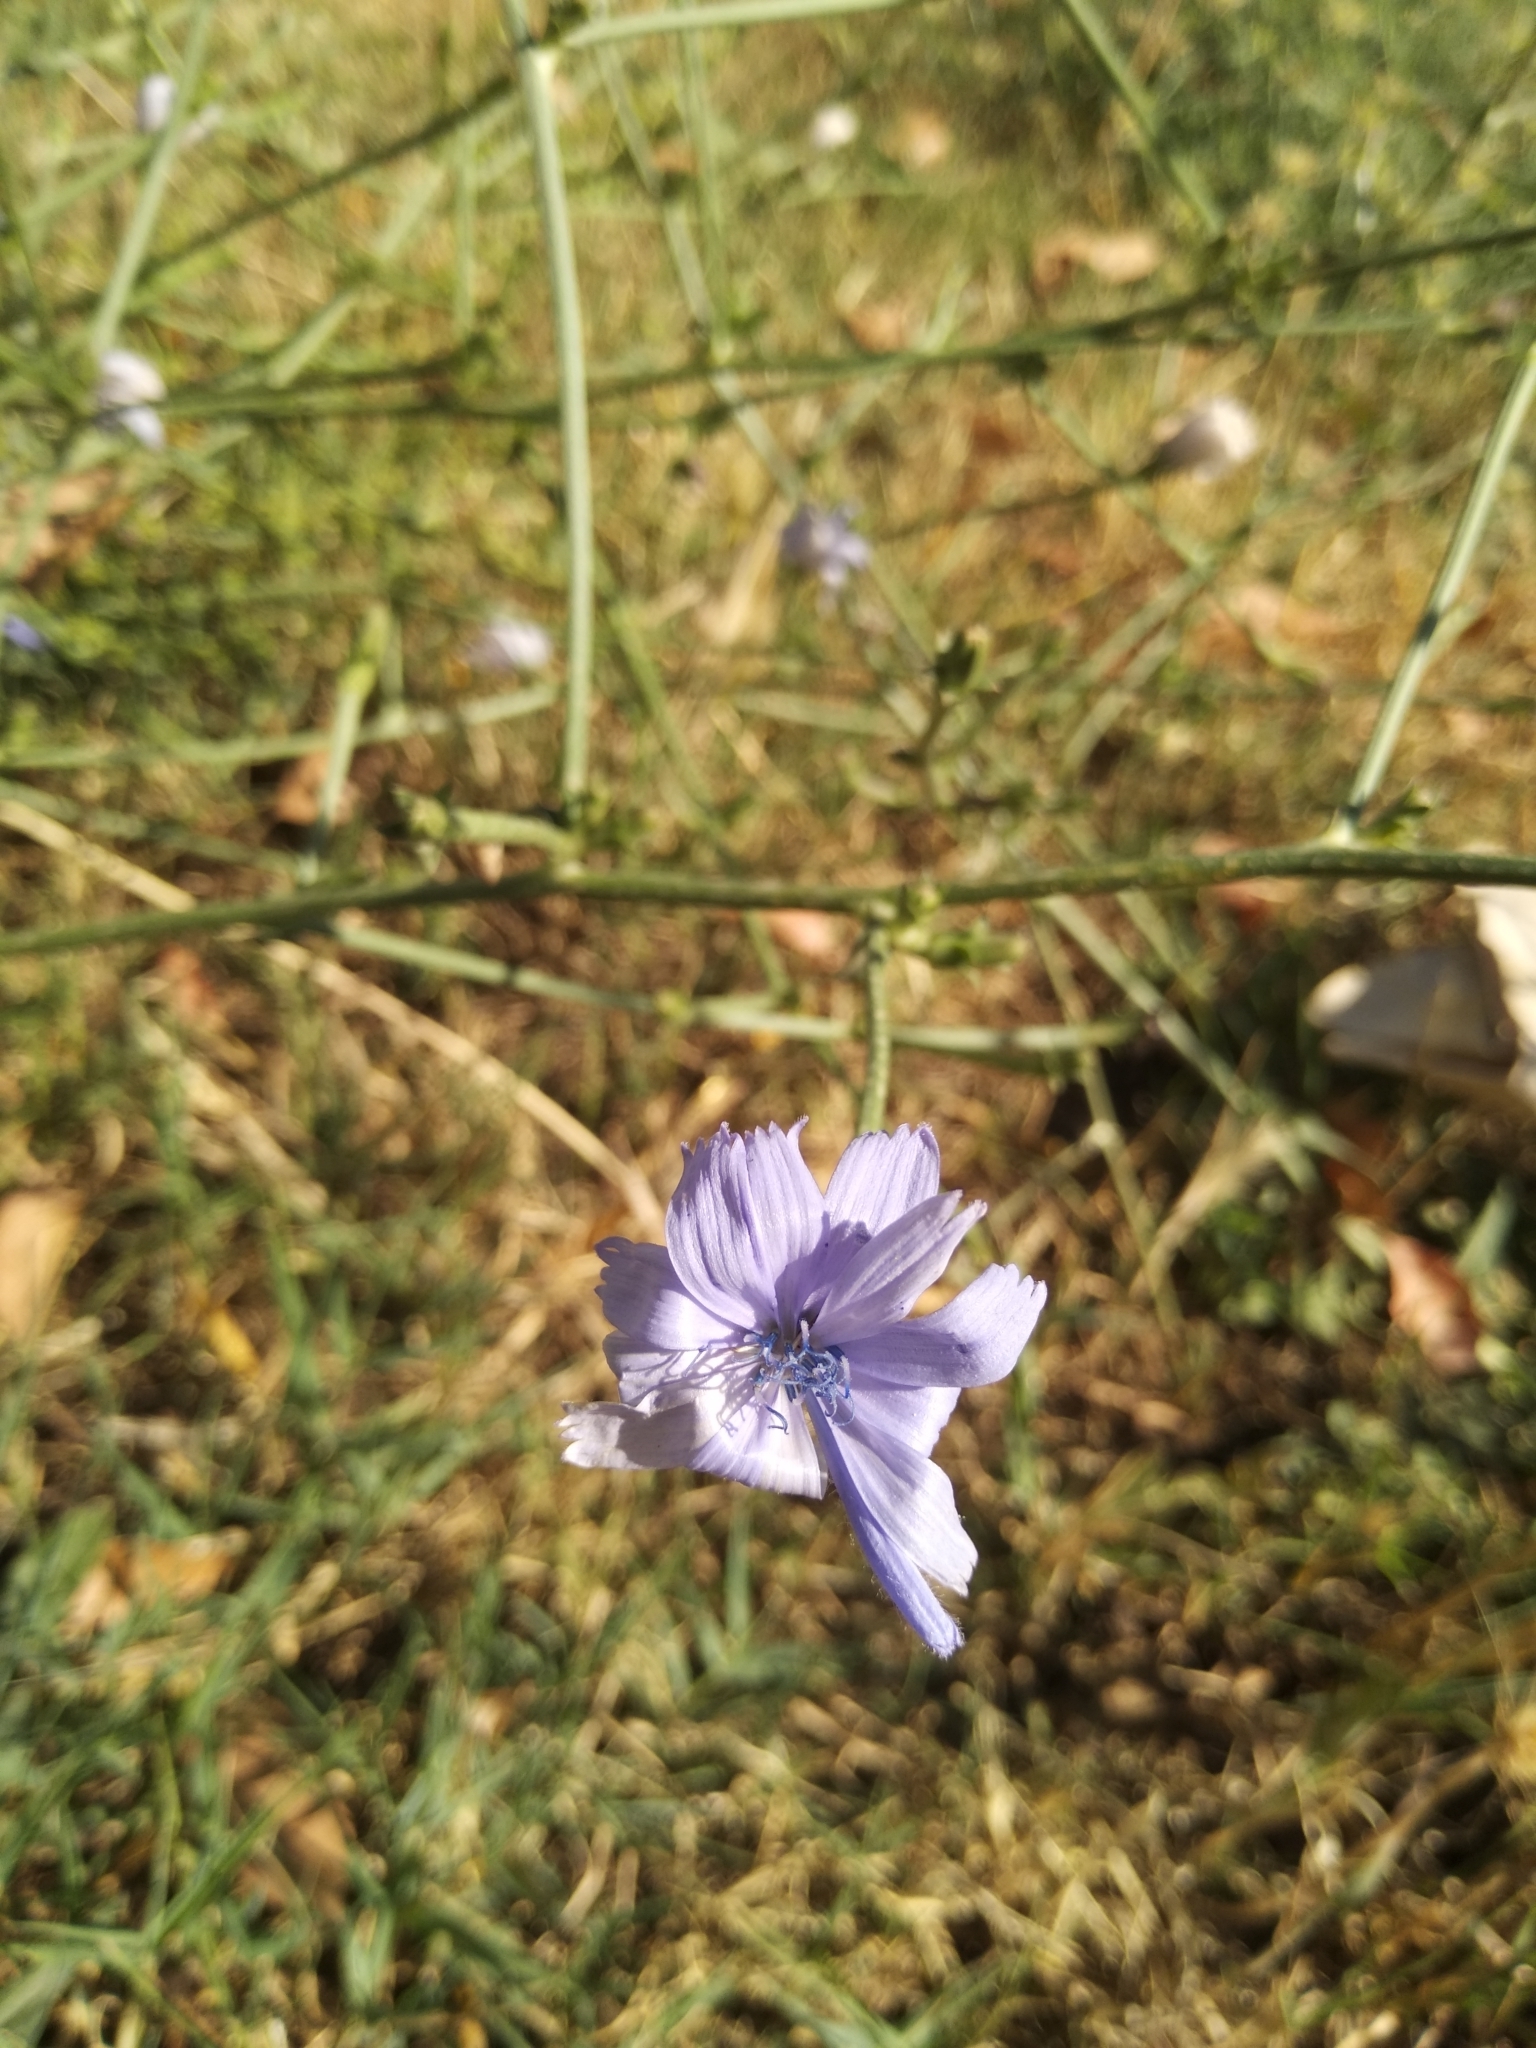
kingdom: Plantae
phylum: Tracheophyta
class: Magnoliopsida
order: Asterales
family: Asteraceae
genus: Cichorium
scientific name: Cichorium intybus
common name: Chicory
